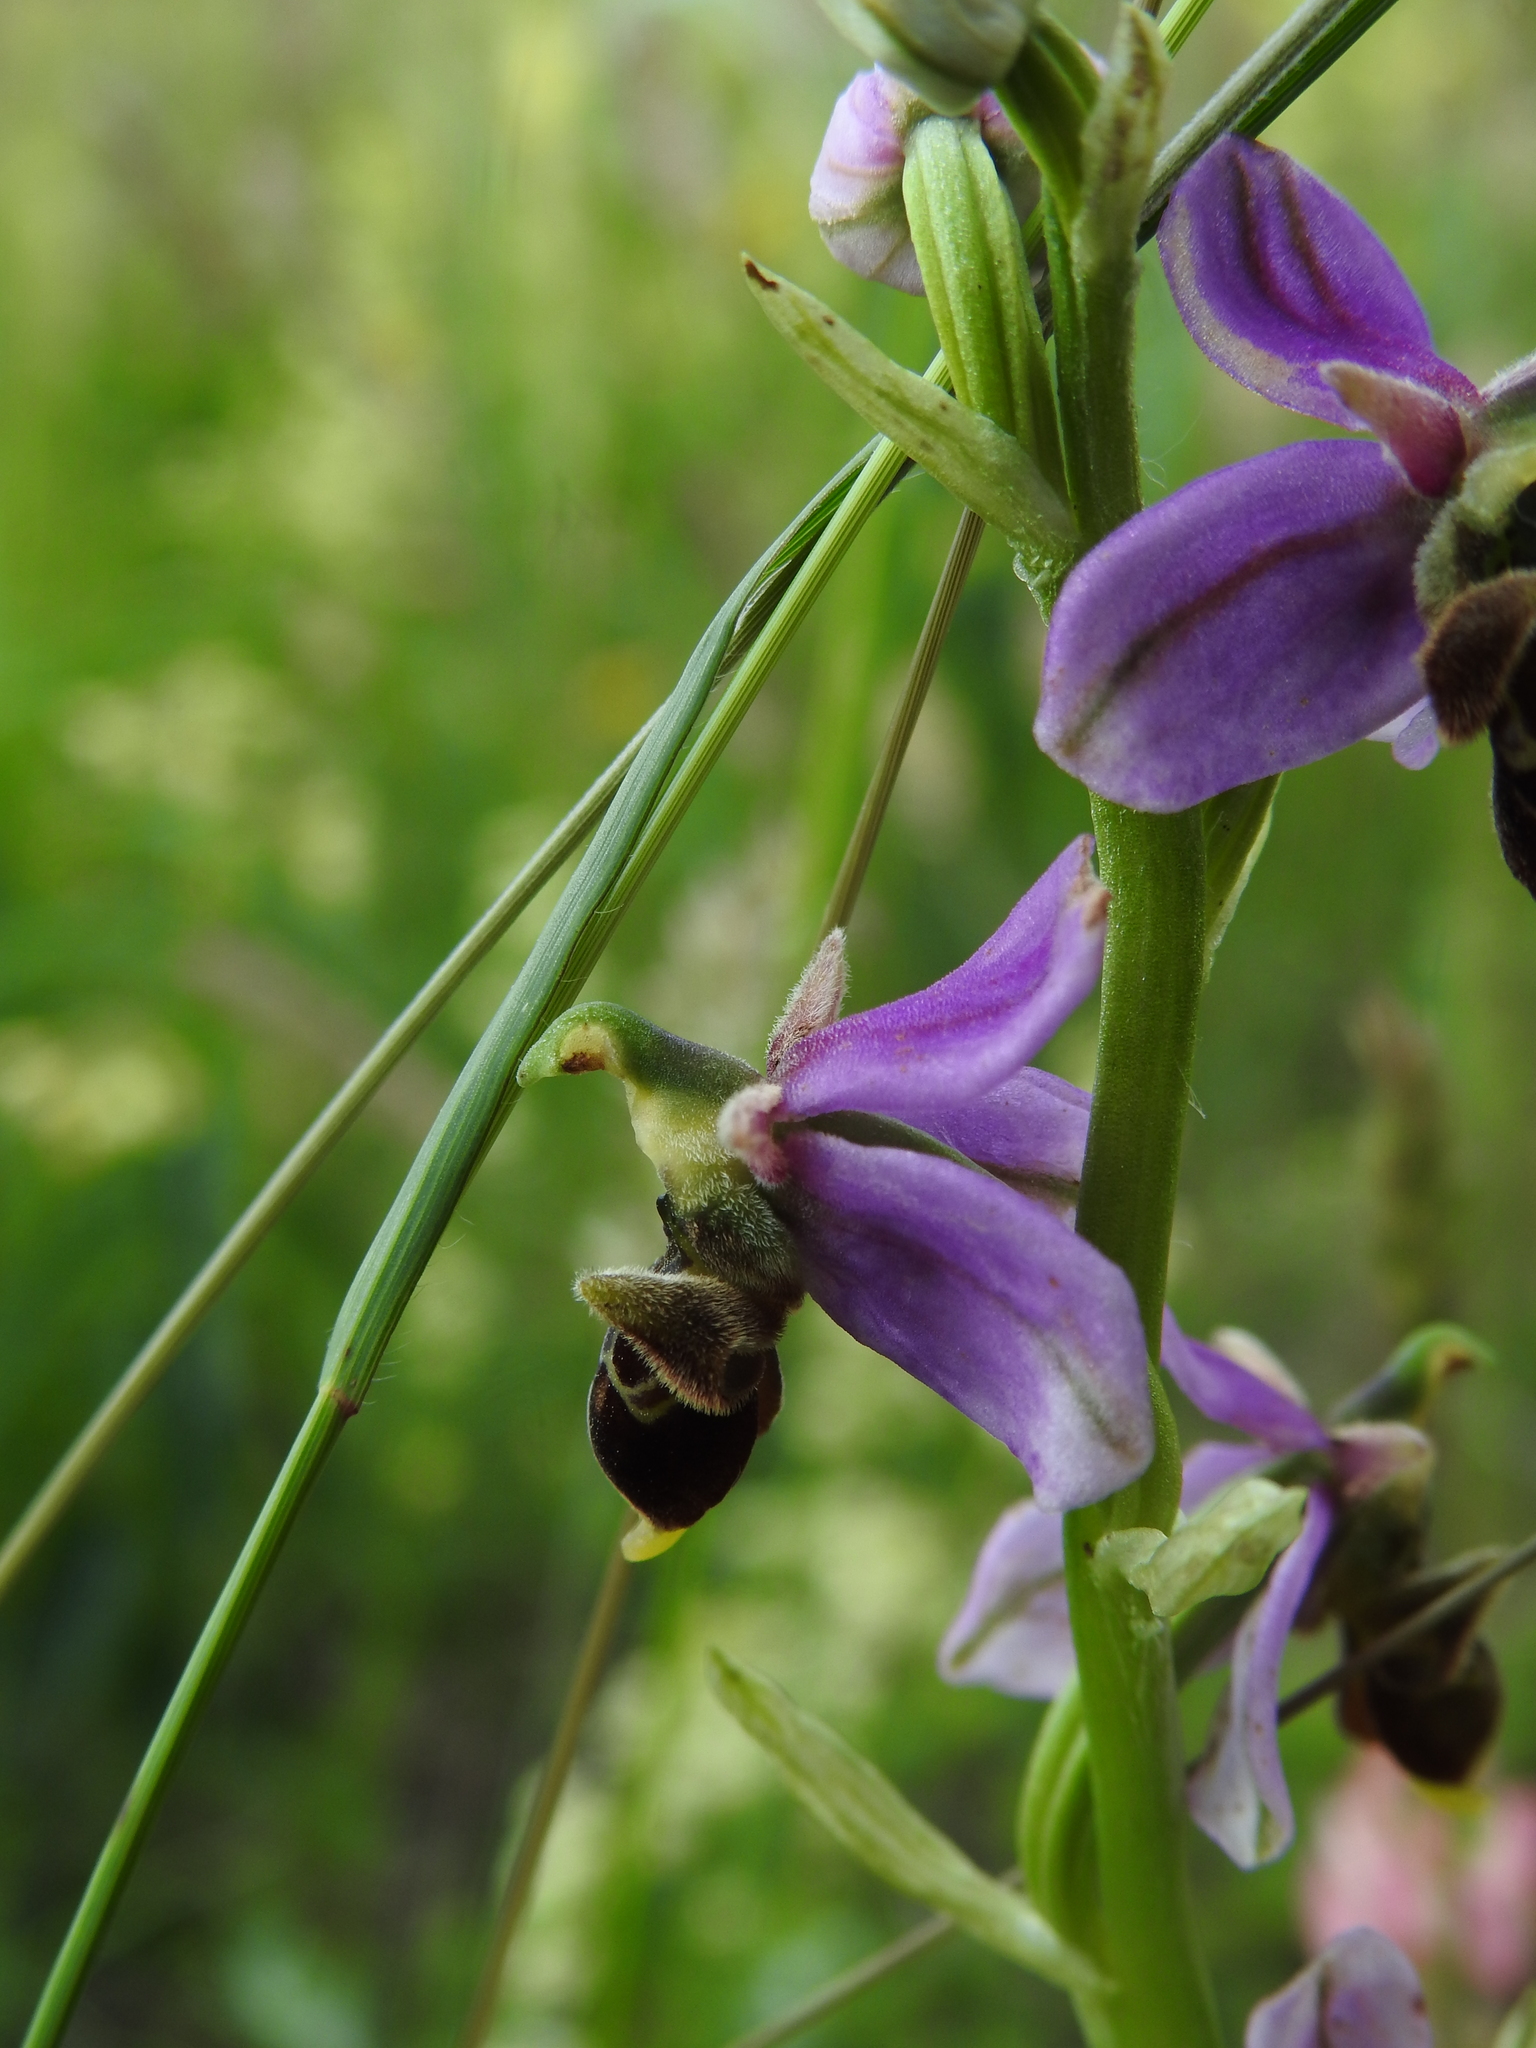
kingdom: Plantae
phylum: Tracheophyta
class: Liliopsida
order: Asparagales
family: Orchidaceae
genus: Ophrys
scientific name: Ophrys scolopax
